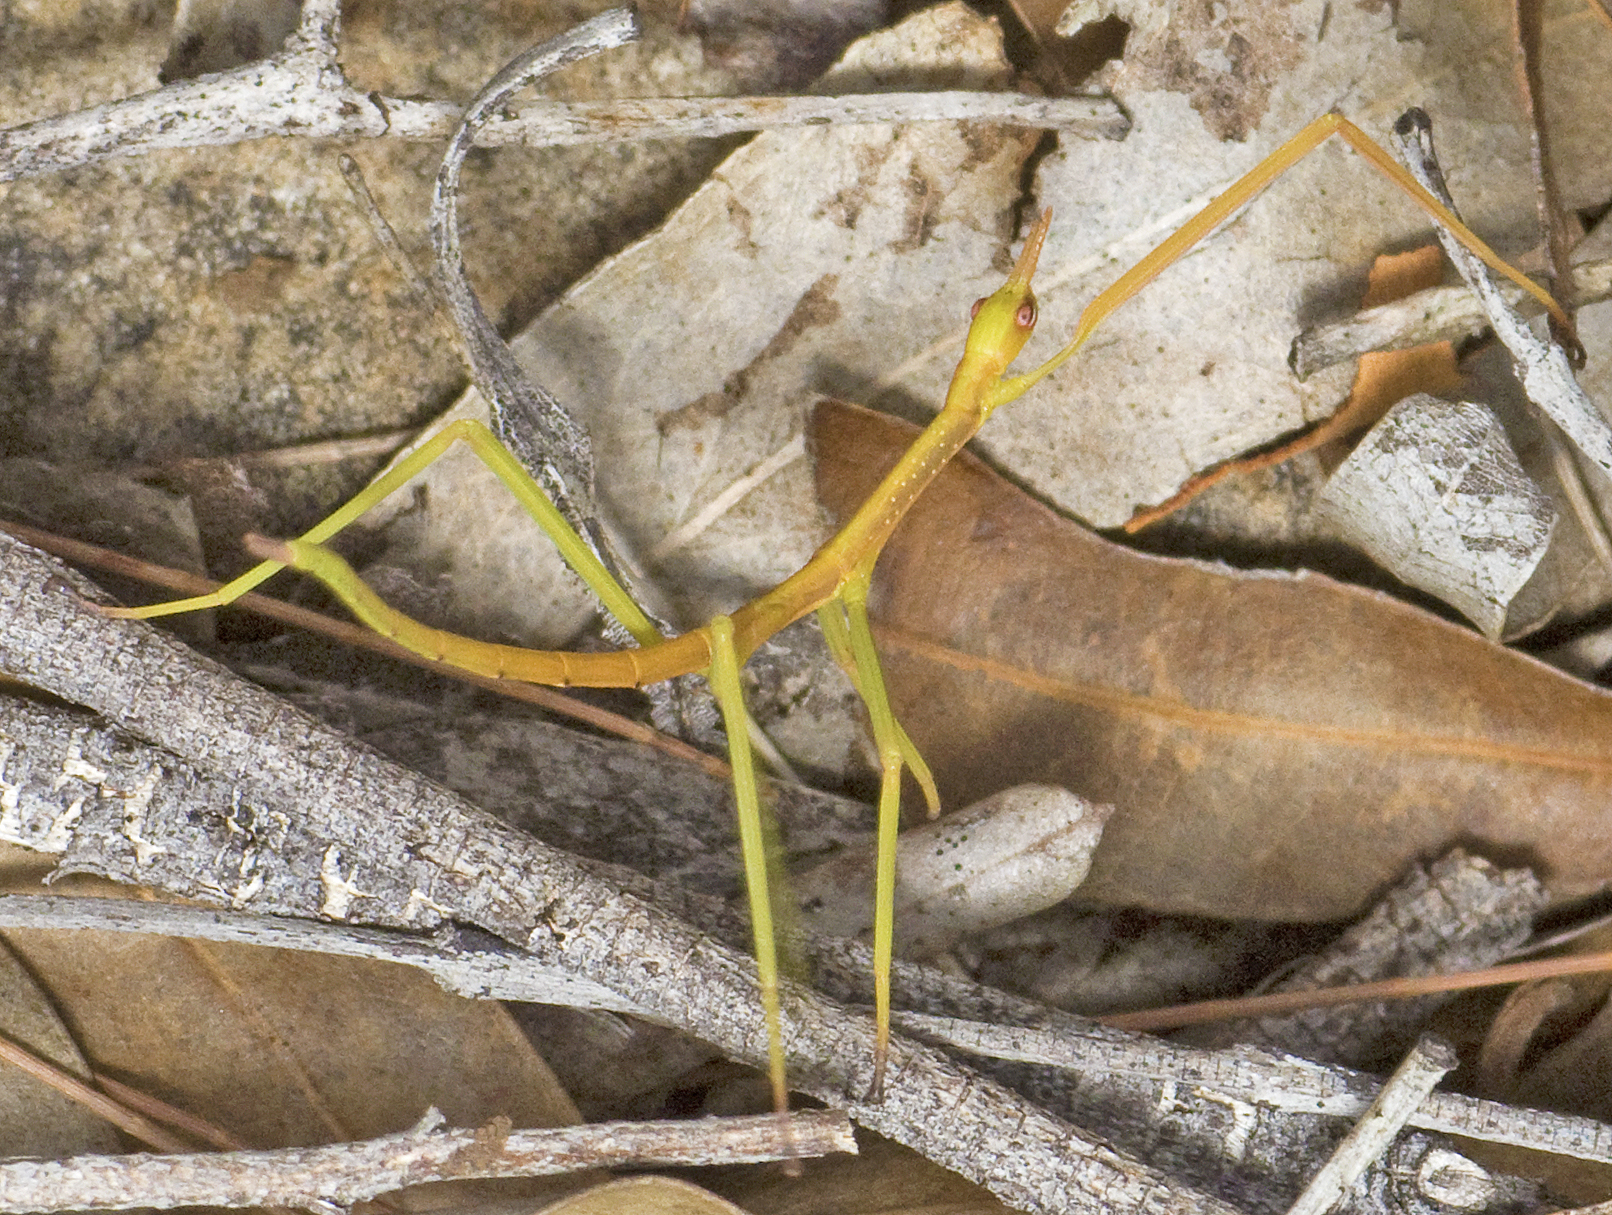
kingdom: Animalia
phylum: Arthropoda
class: Insecta
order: Phasmida
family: Phasmatidae
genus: Didymuria
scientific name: Didymuria violescens
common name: Spur-legged stick-insect
